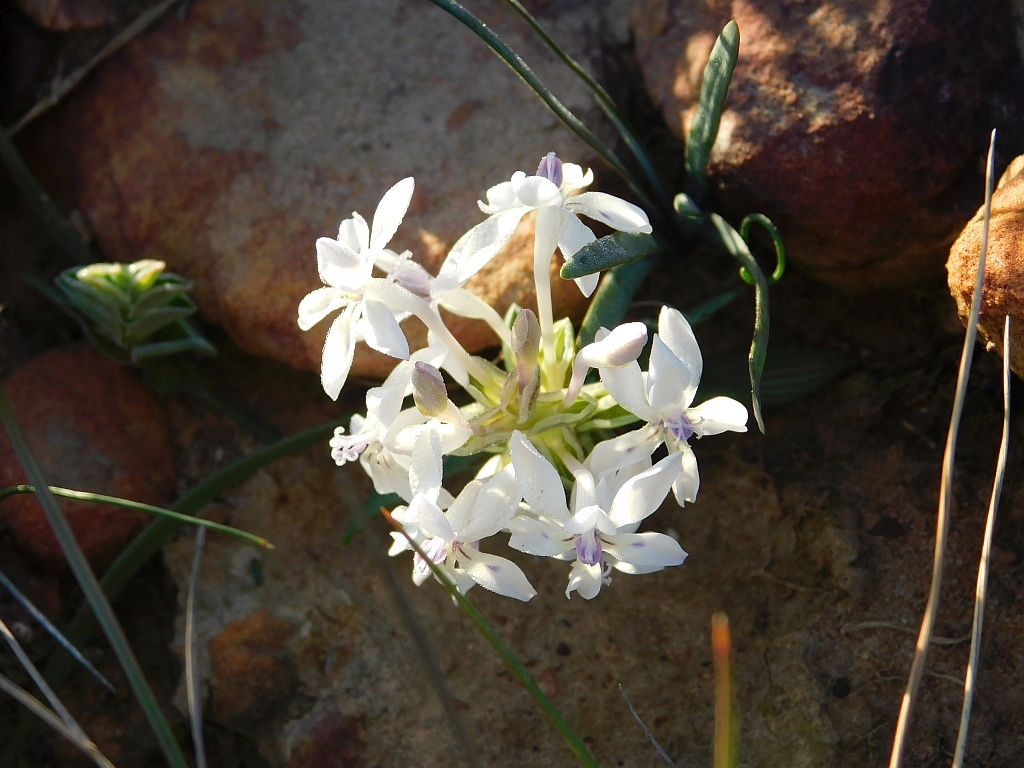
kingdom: Plantae
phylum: Tracheophyta
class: Liliopsida
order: Asparagales
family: Iridaceae
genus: Lapeirousia
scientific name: Lapeirousia pyramidalis
